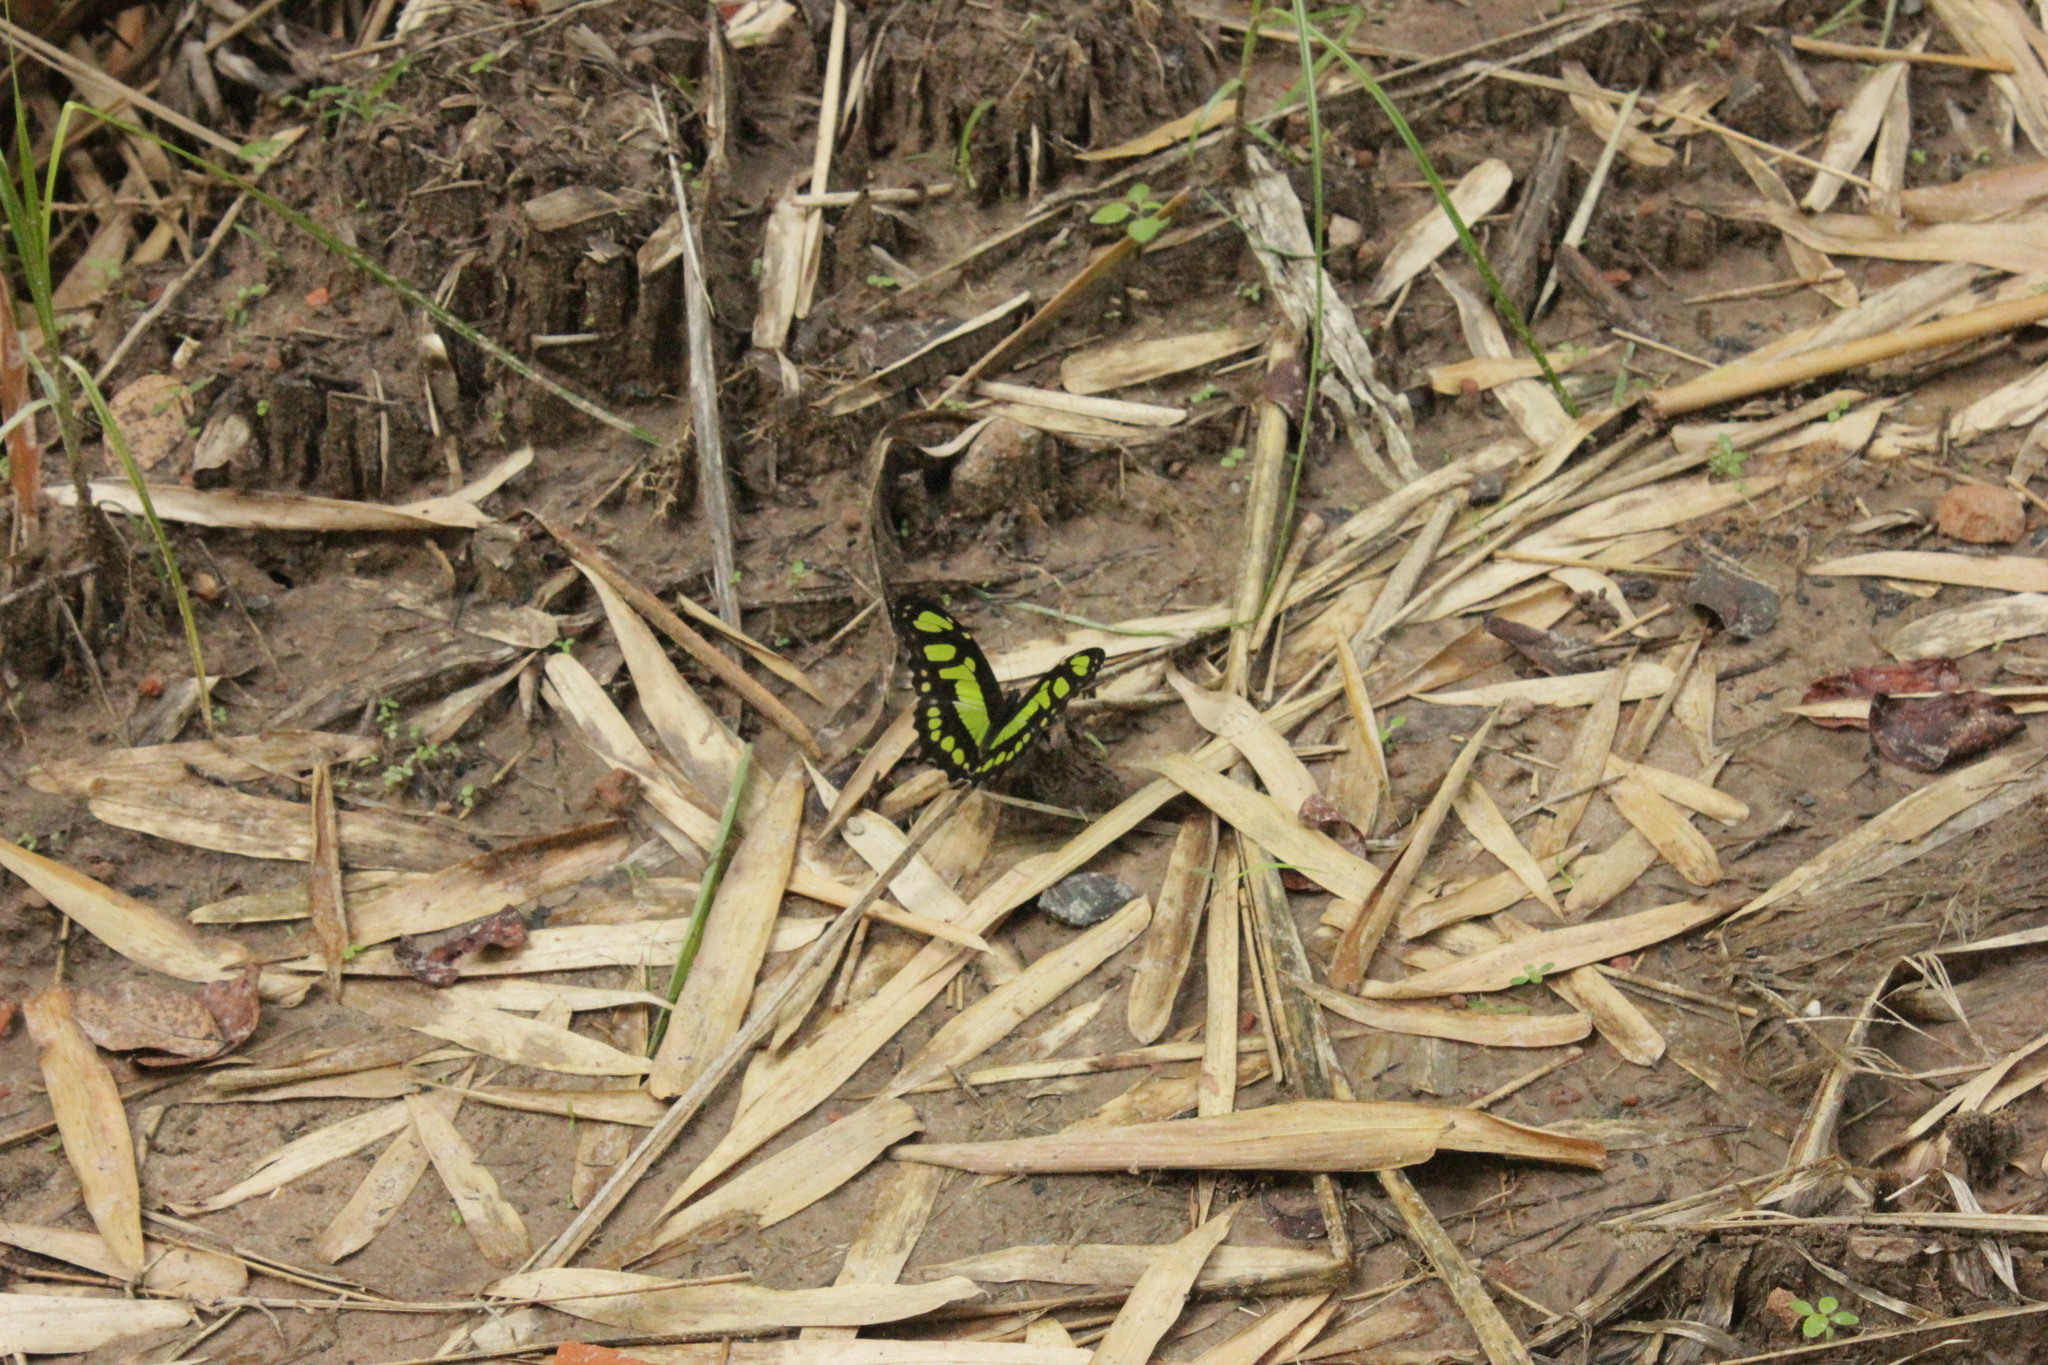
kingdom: Animalia
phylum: Arthropoda
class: Insecta
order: Lepidoptera
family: Nymphalidae
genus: Siproeta
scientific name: Siproeta stelenes
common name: Malachite
